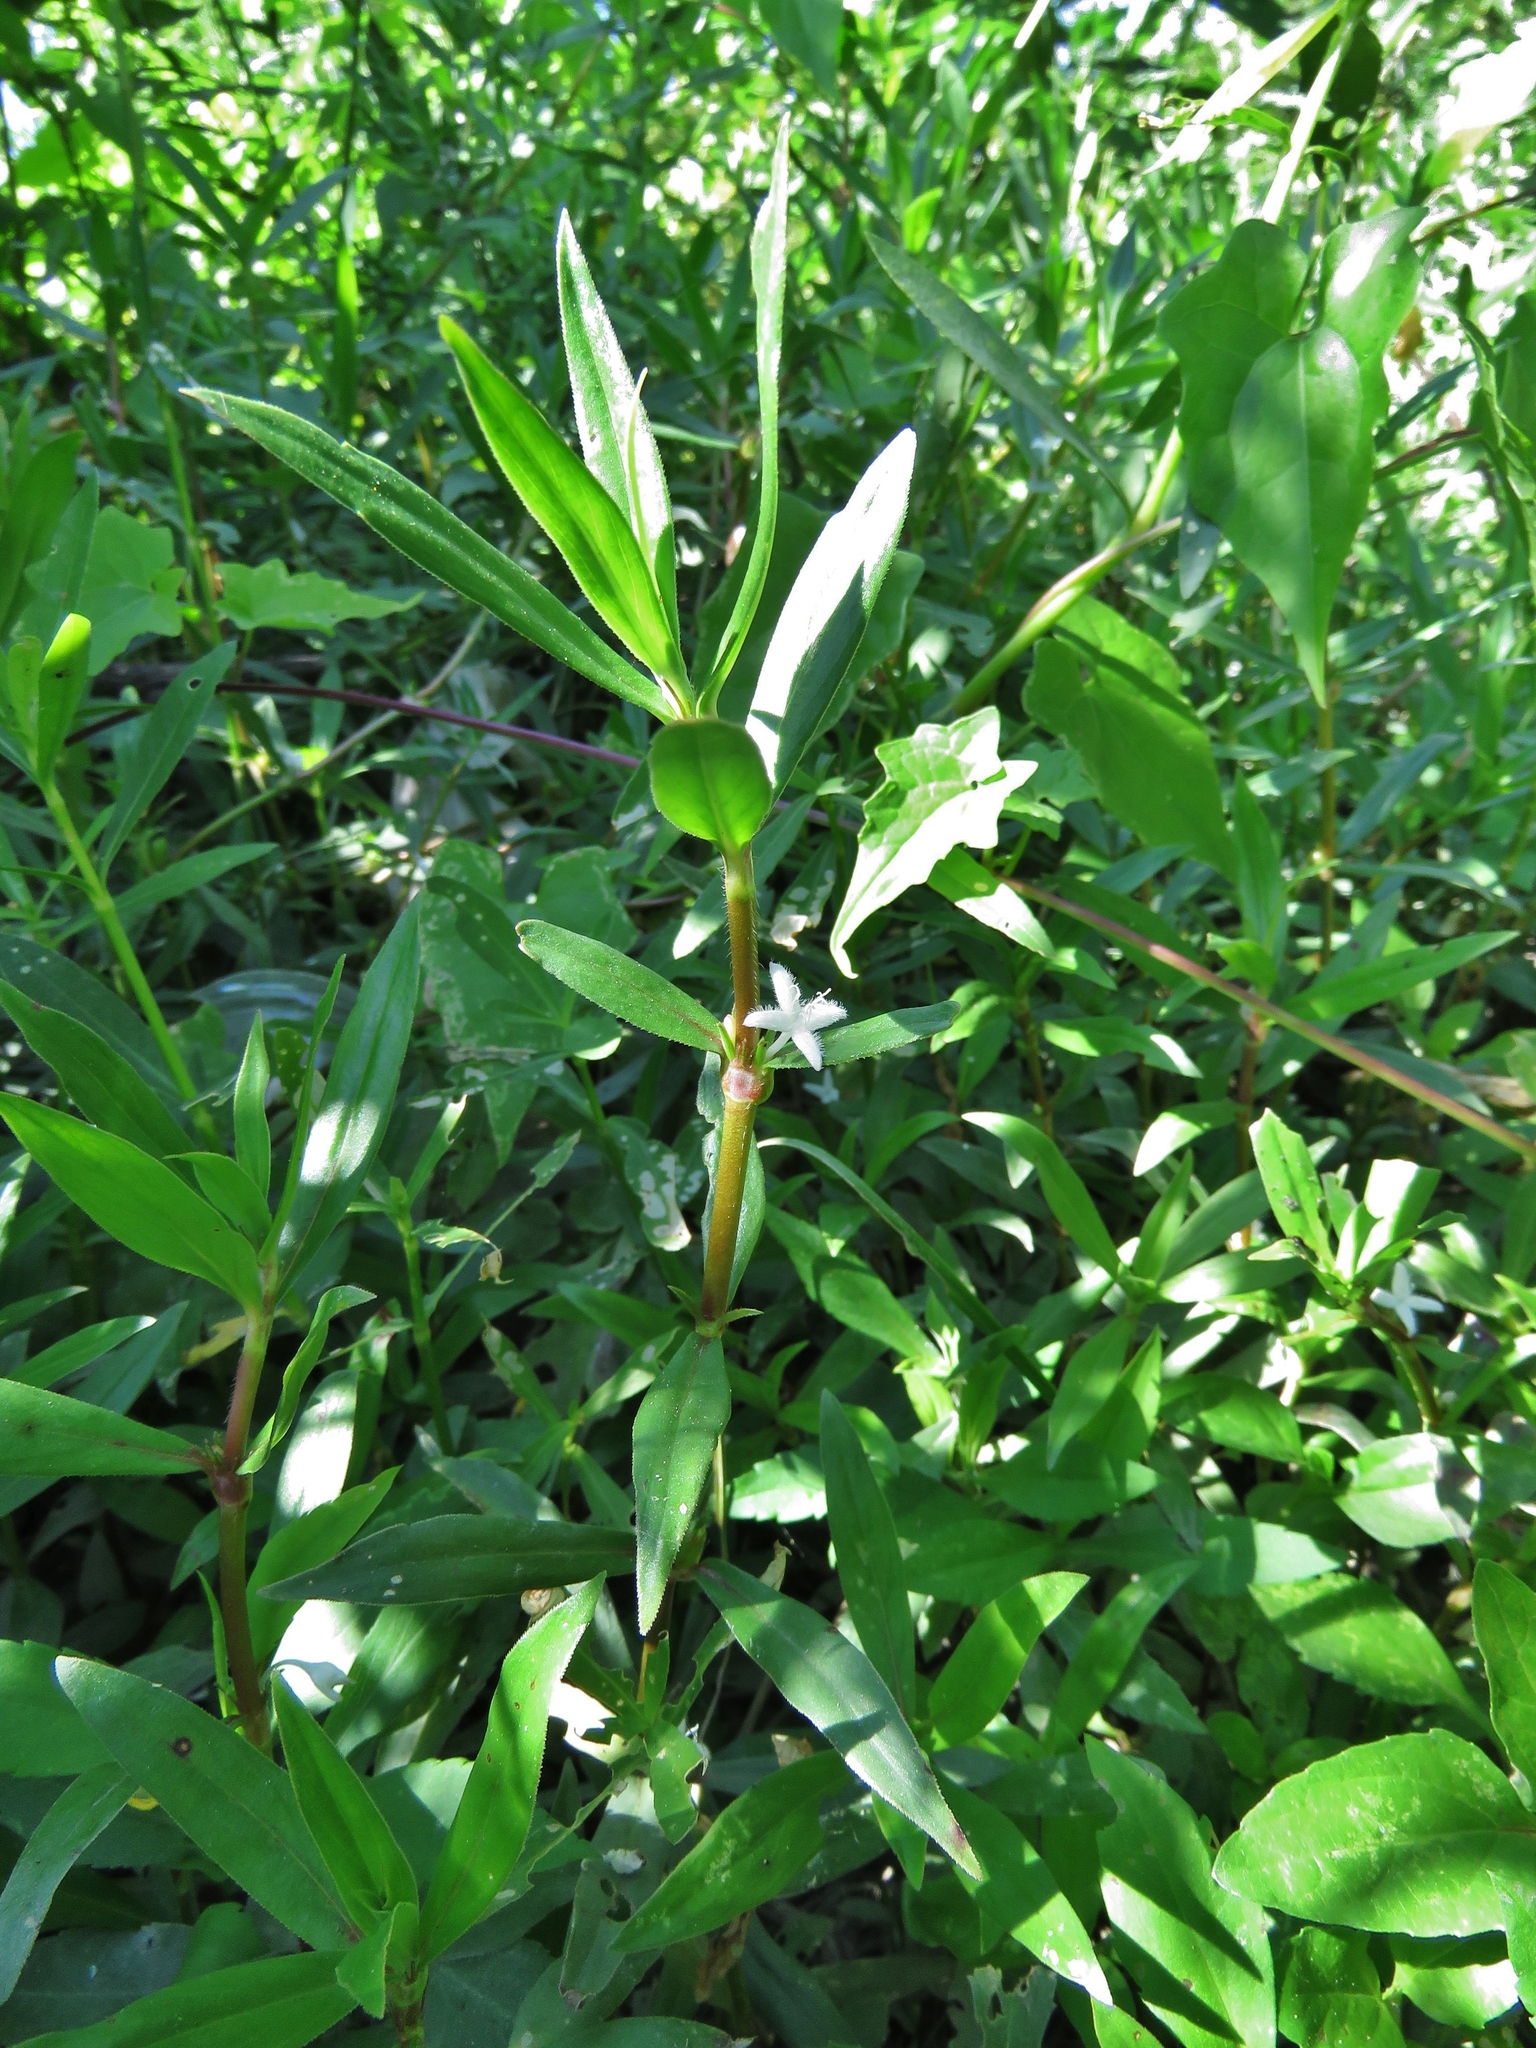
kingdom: Plantae
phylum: Tracheophyta
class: Magnoliopsida
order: Gentianales
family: Rubiaceae
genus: Diodia
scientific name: Diodia virginiana
